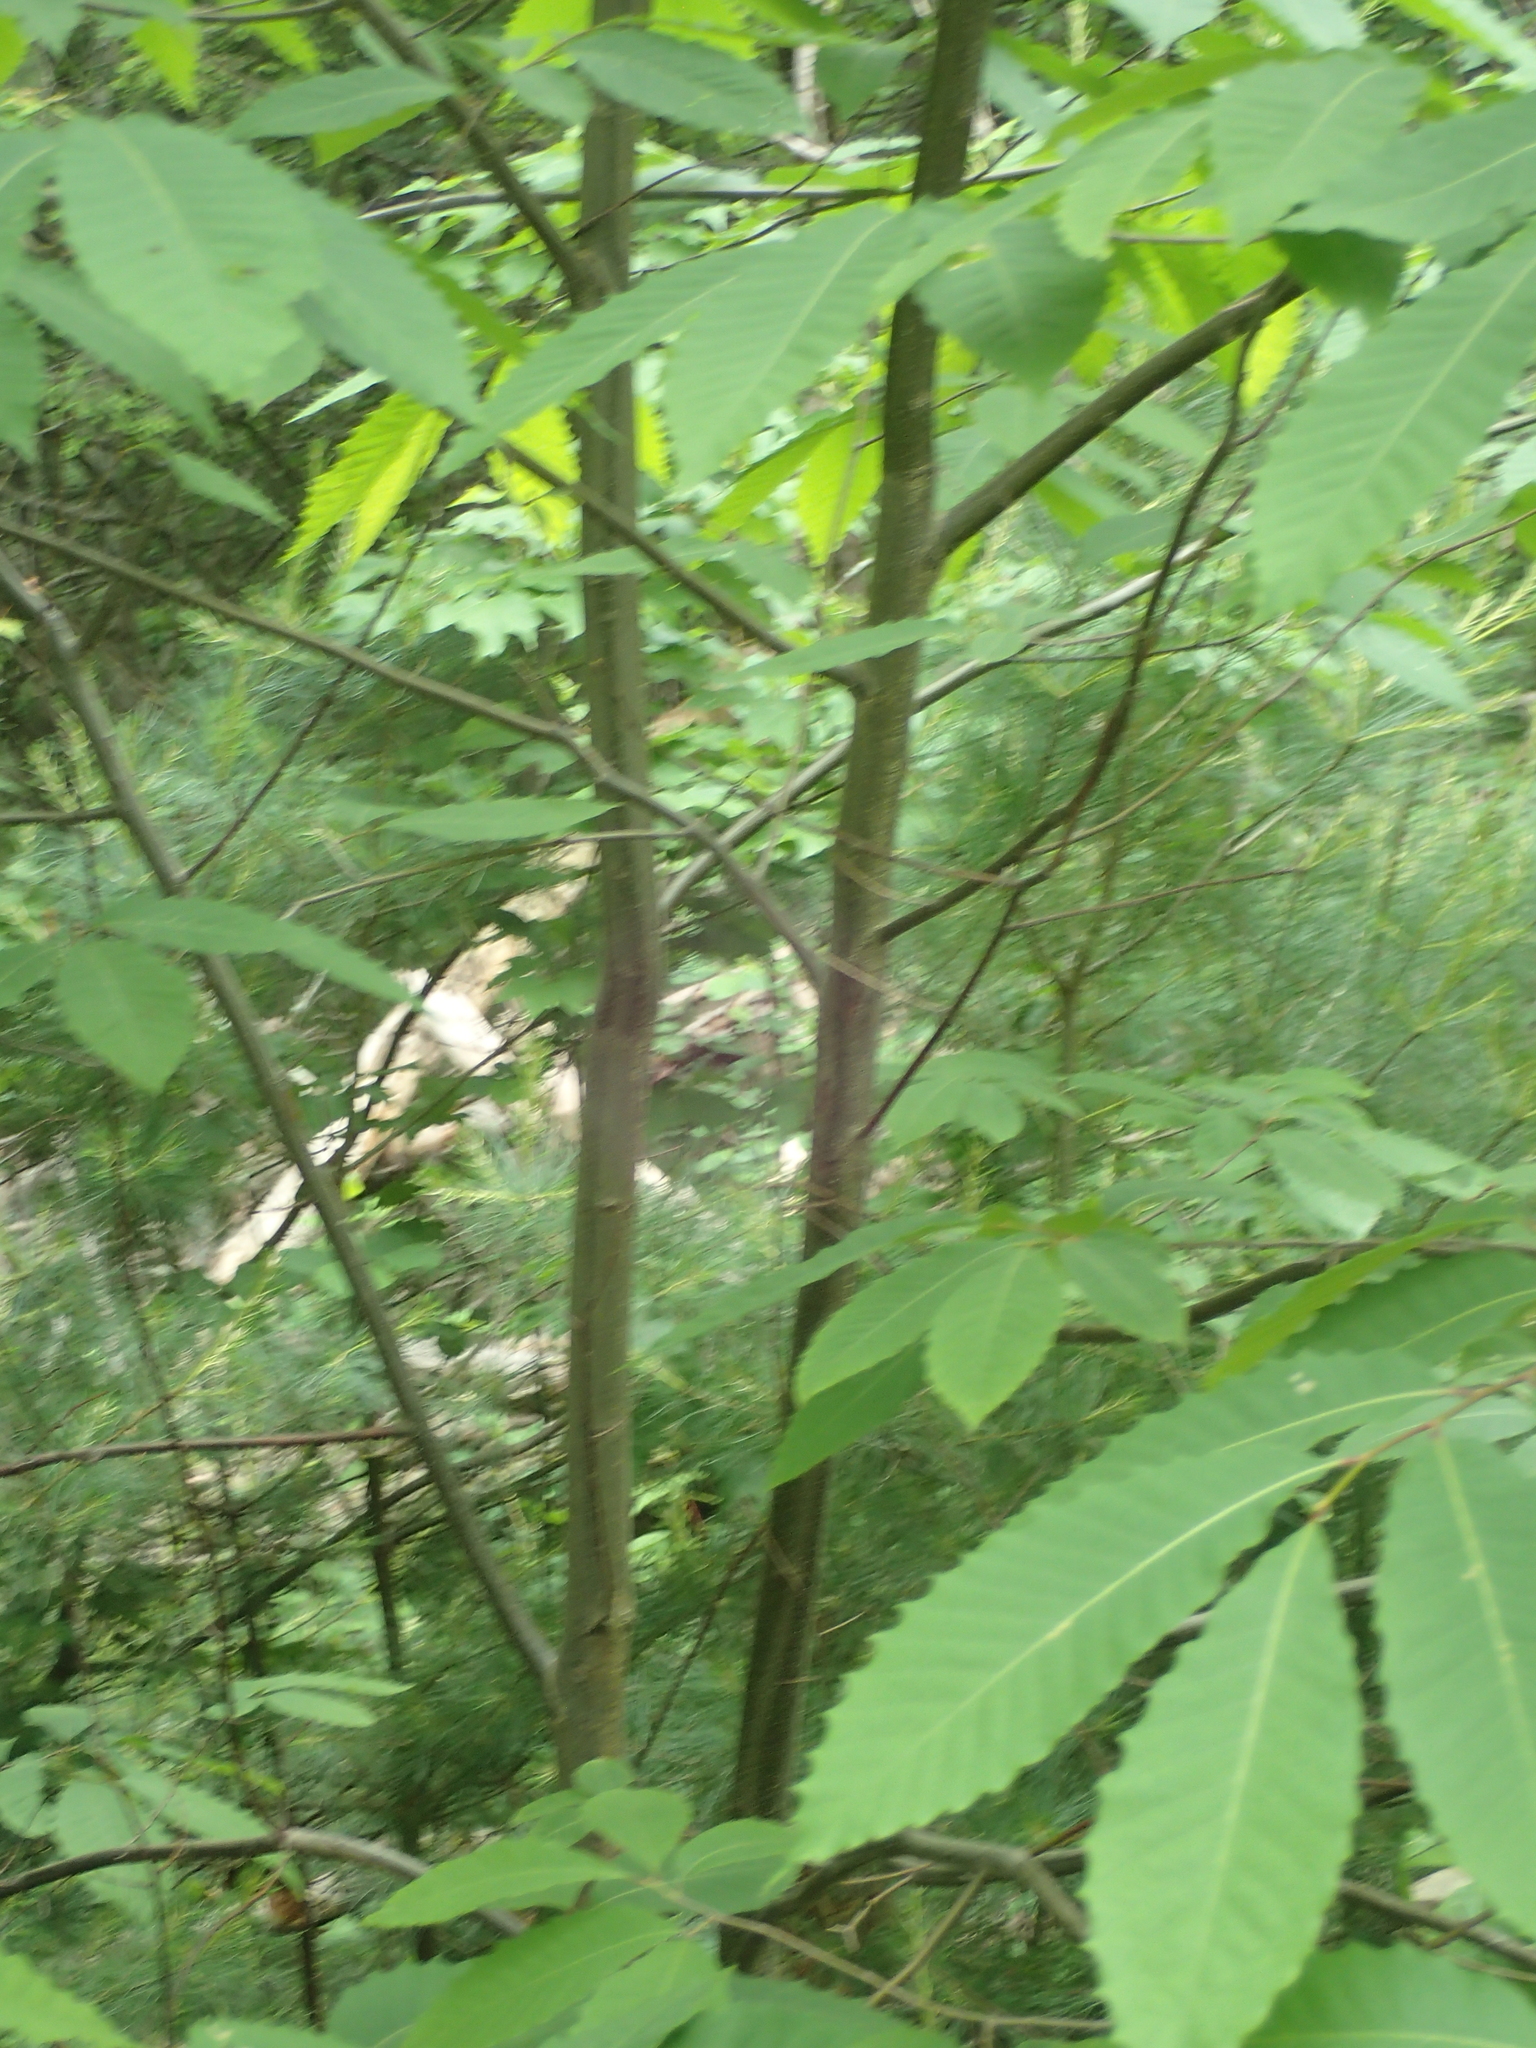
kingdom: Plantae
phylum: Tracheophyta
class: Magnoliopsida
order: Fagales
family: Fagaceae
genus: Castanea
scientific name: Castanea dentata
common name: American chestnut
